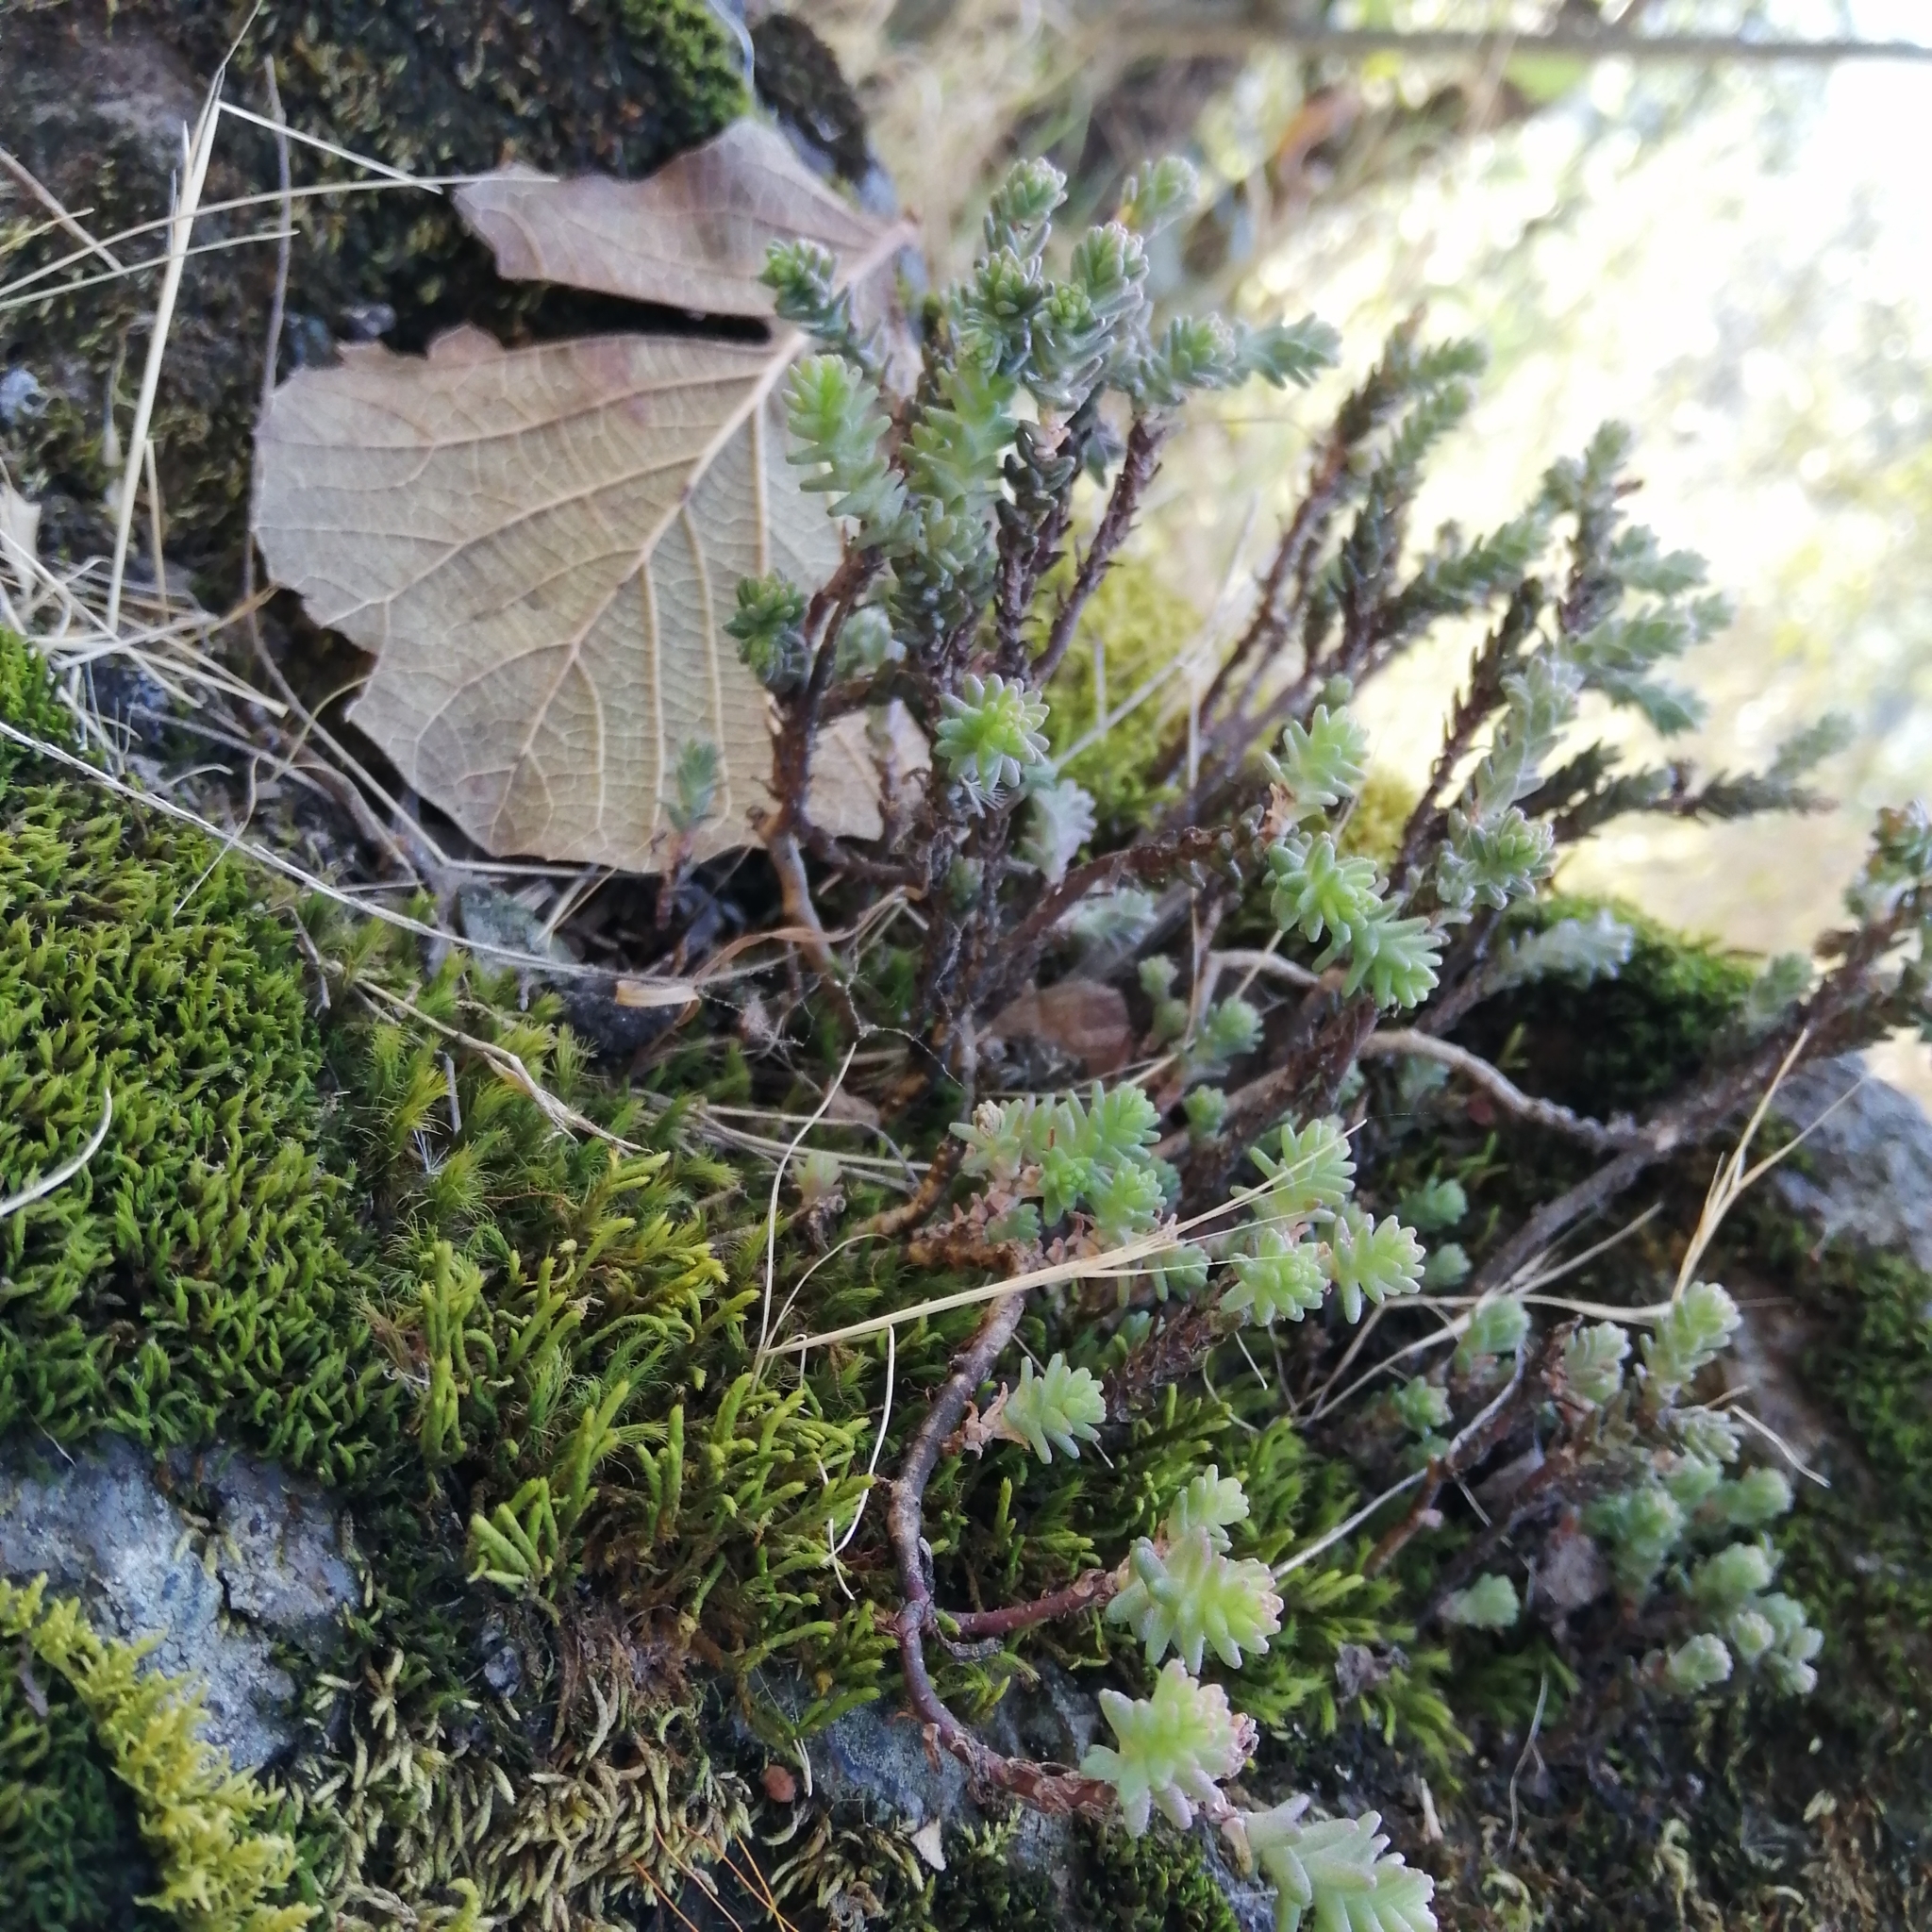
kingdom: Plantae
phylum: Tracheophyta
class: Magnoliopsida
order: Saxifragales
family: Crassulaceae
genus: Sedum
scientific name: Sedum moranense
